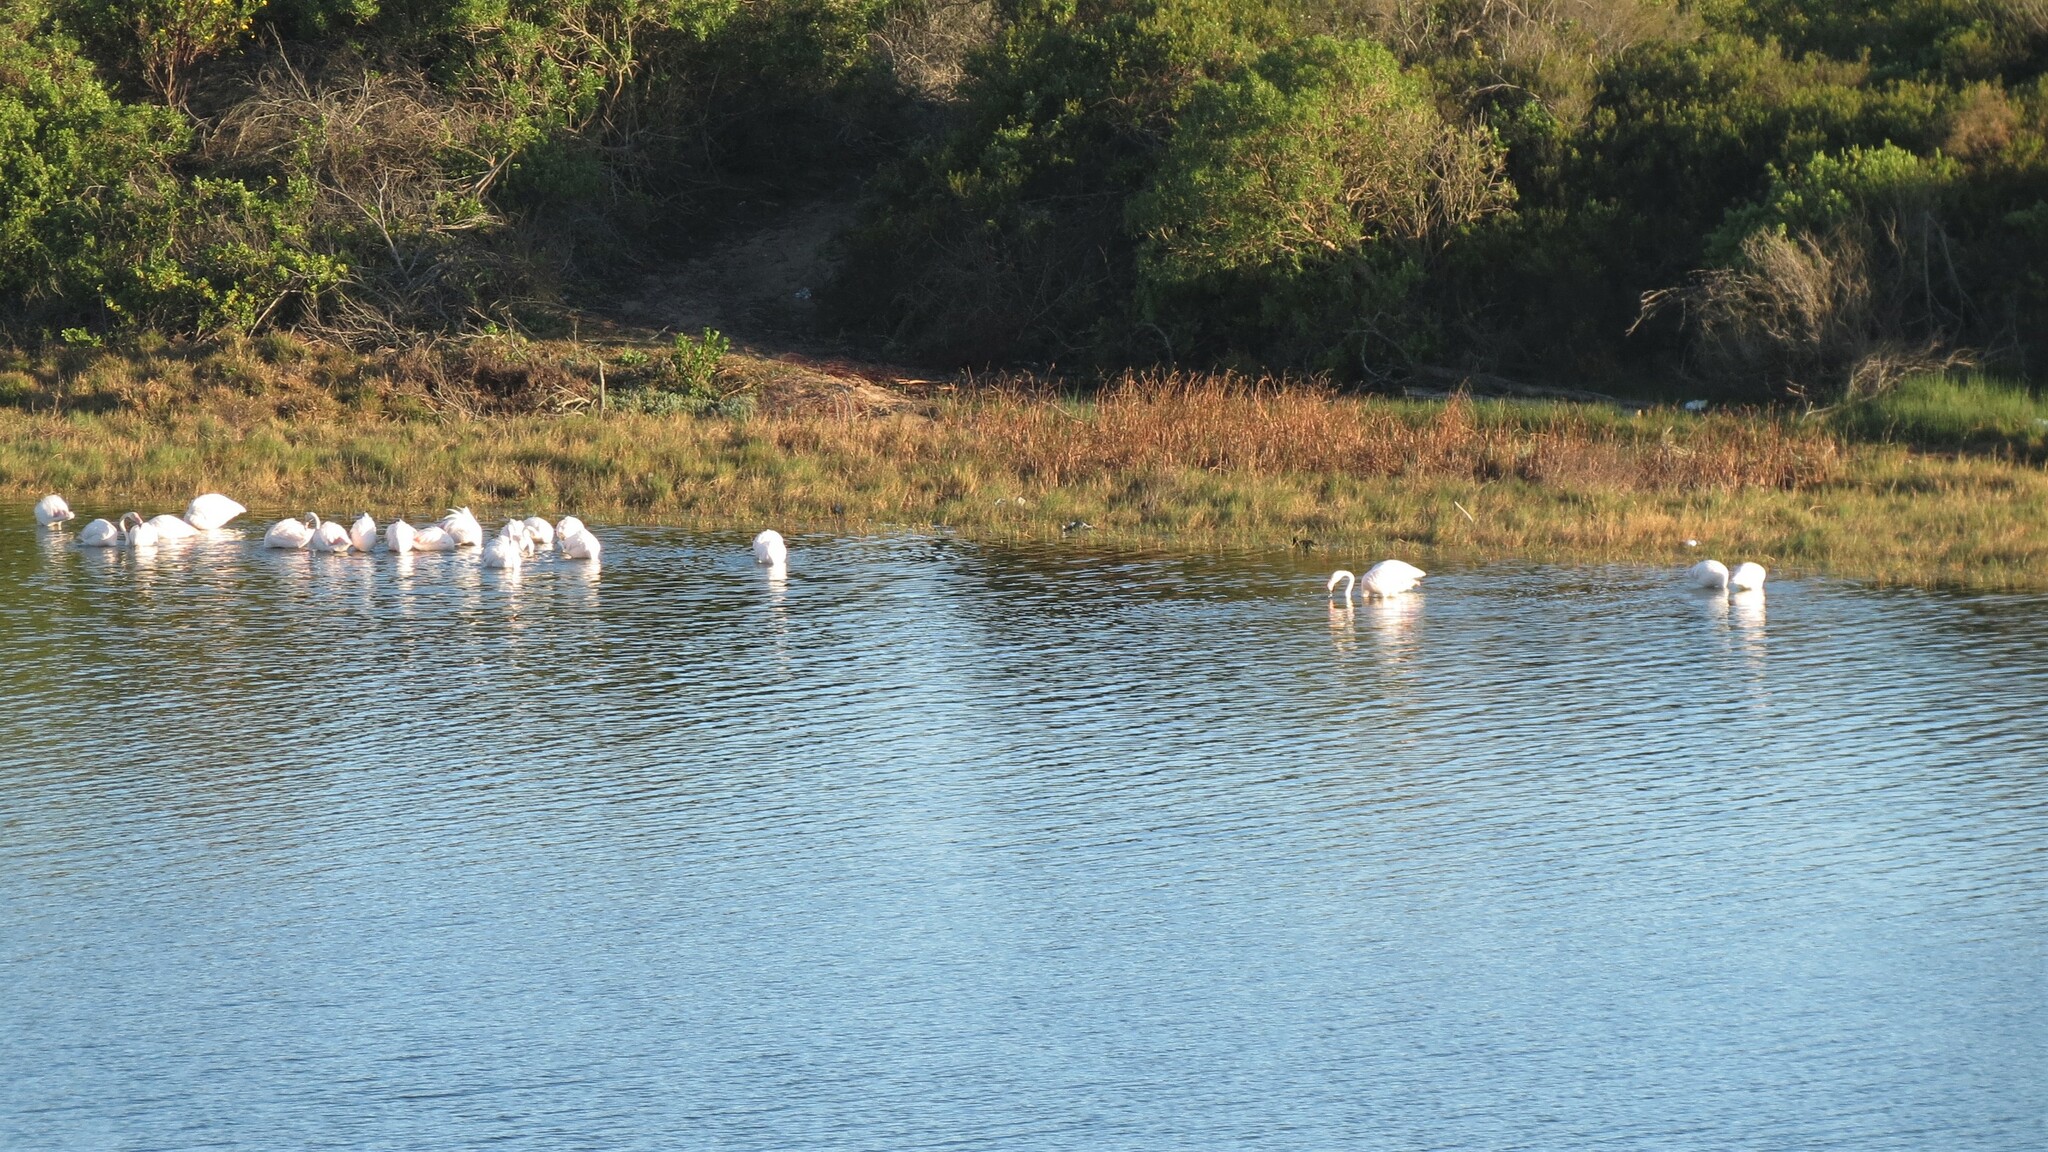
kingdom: Animalia
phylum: Chordata
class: Aves
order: Phoenicopteriformes
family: Phoenicopteridae
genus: Phoenicopterus
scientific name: Phoenicopterus roseus
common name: Greater flamingo
